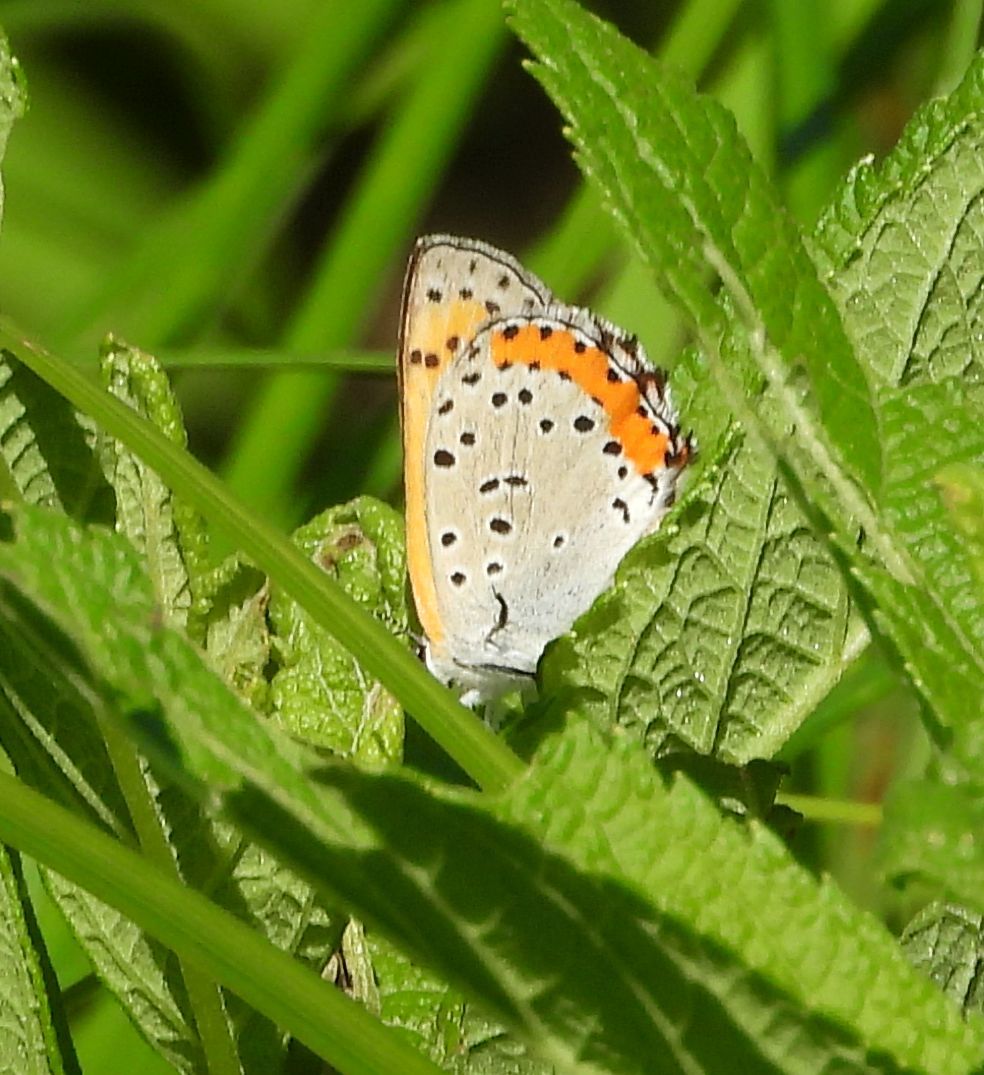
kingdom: Animalia
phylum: Arthropoda
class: Insecta
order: Lepidoptera
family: Lycaenidae
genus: Tharsalea
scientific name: Tharsalea hyllus
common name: Bronze copper
